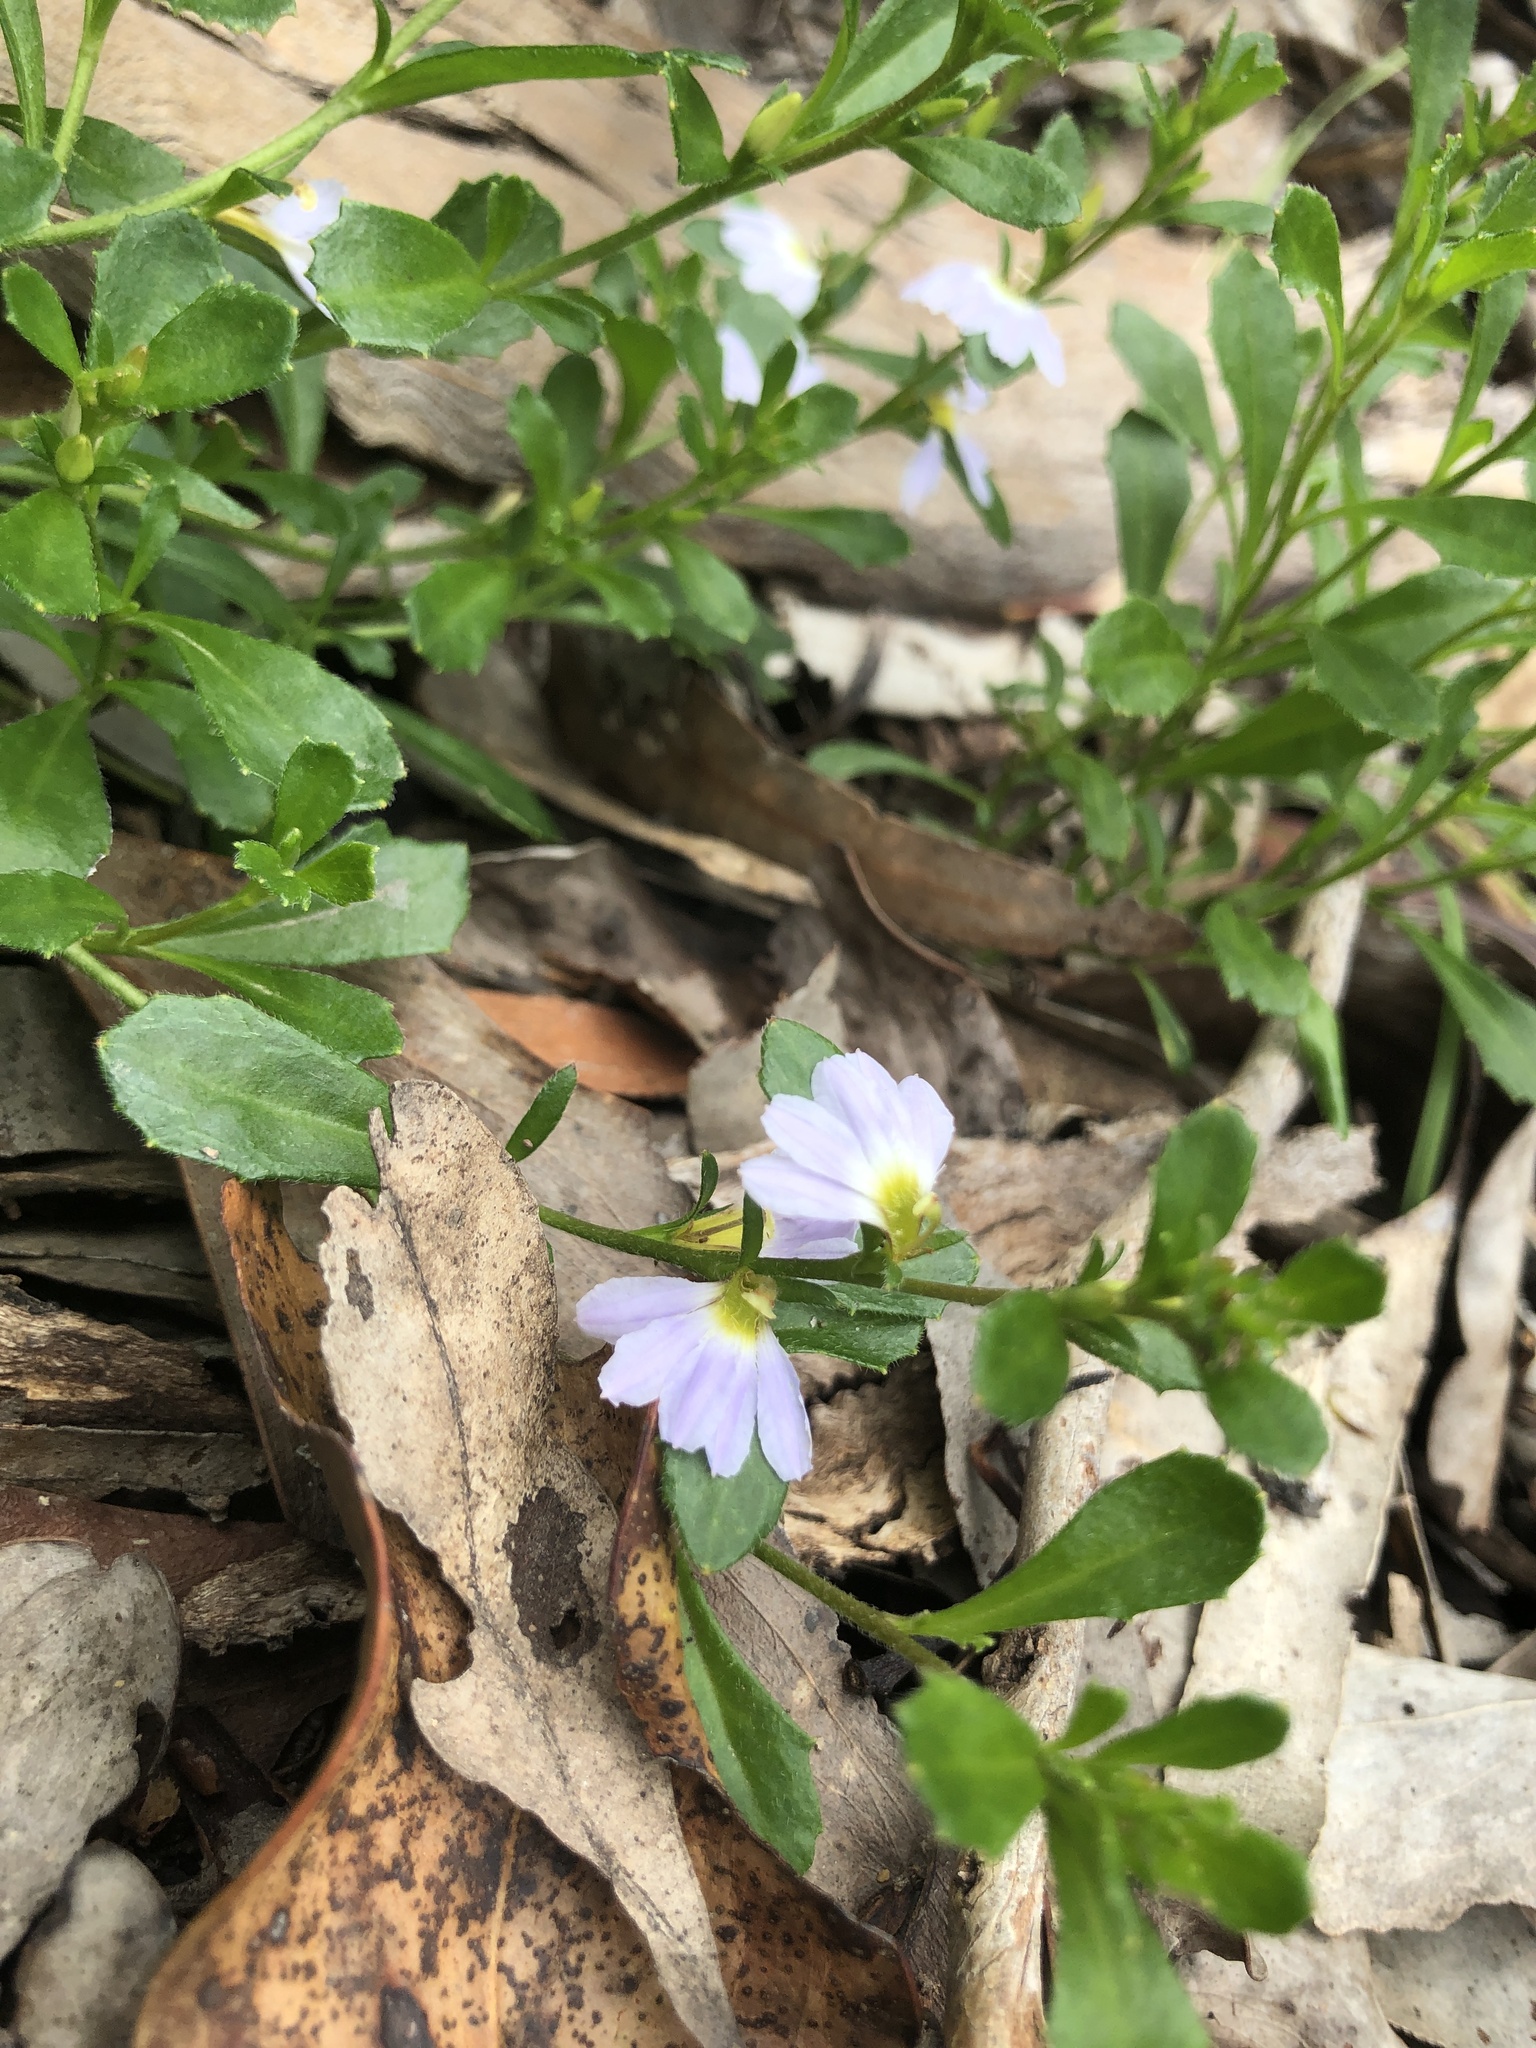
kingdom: Plantae
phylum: Tracheophyta
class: Magnoliopsida
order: Asterales
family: Goodeniaceae
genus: Scaevola
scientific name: Scaevola albida
